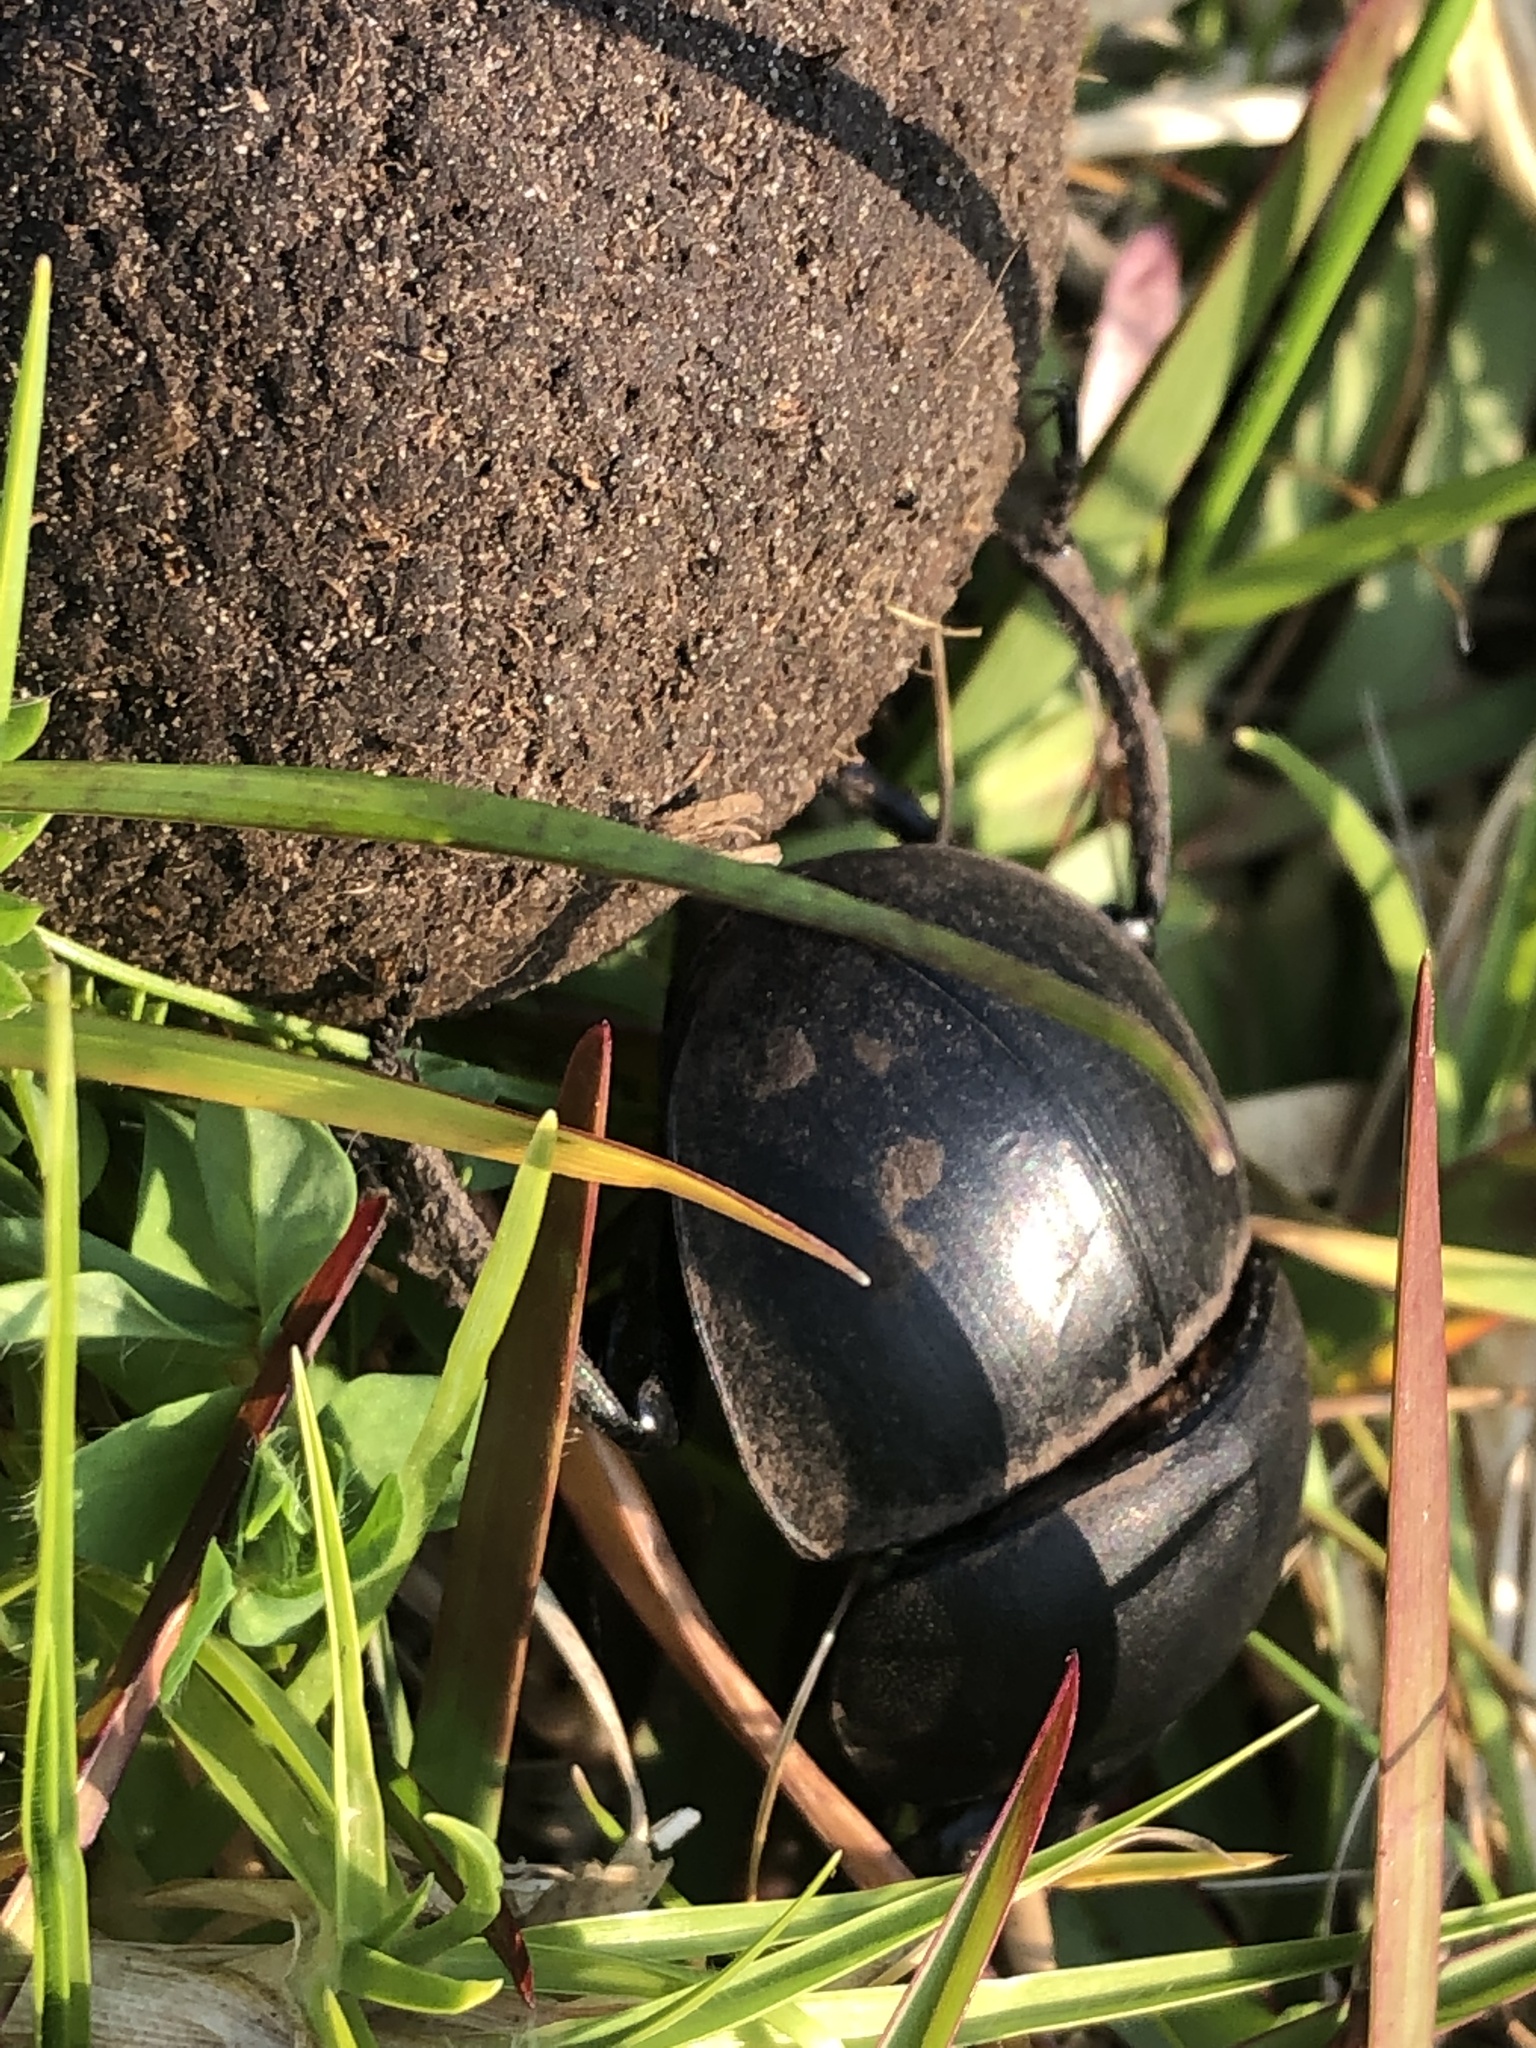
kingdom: Animalia
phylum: Arthropoda
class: Insecta
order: Coleoptera
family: Scarabaeidae
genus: Circellium
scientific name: Circellium bacchus
